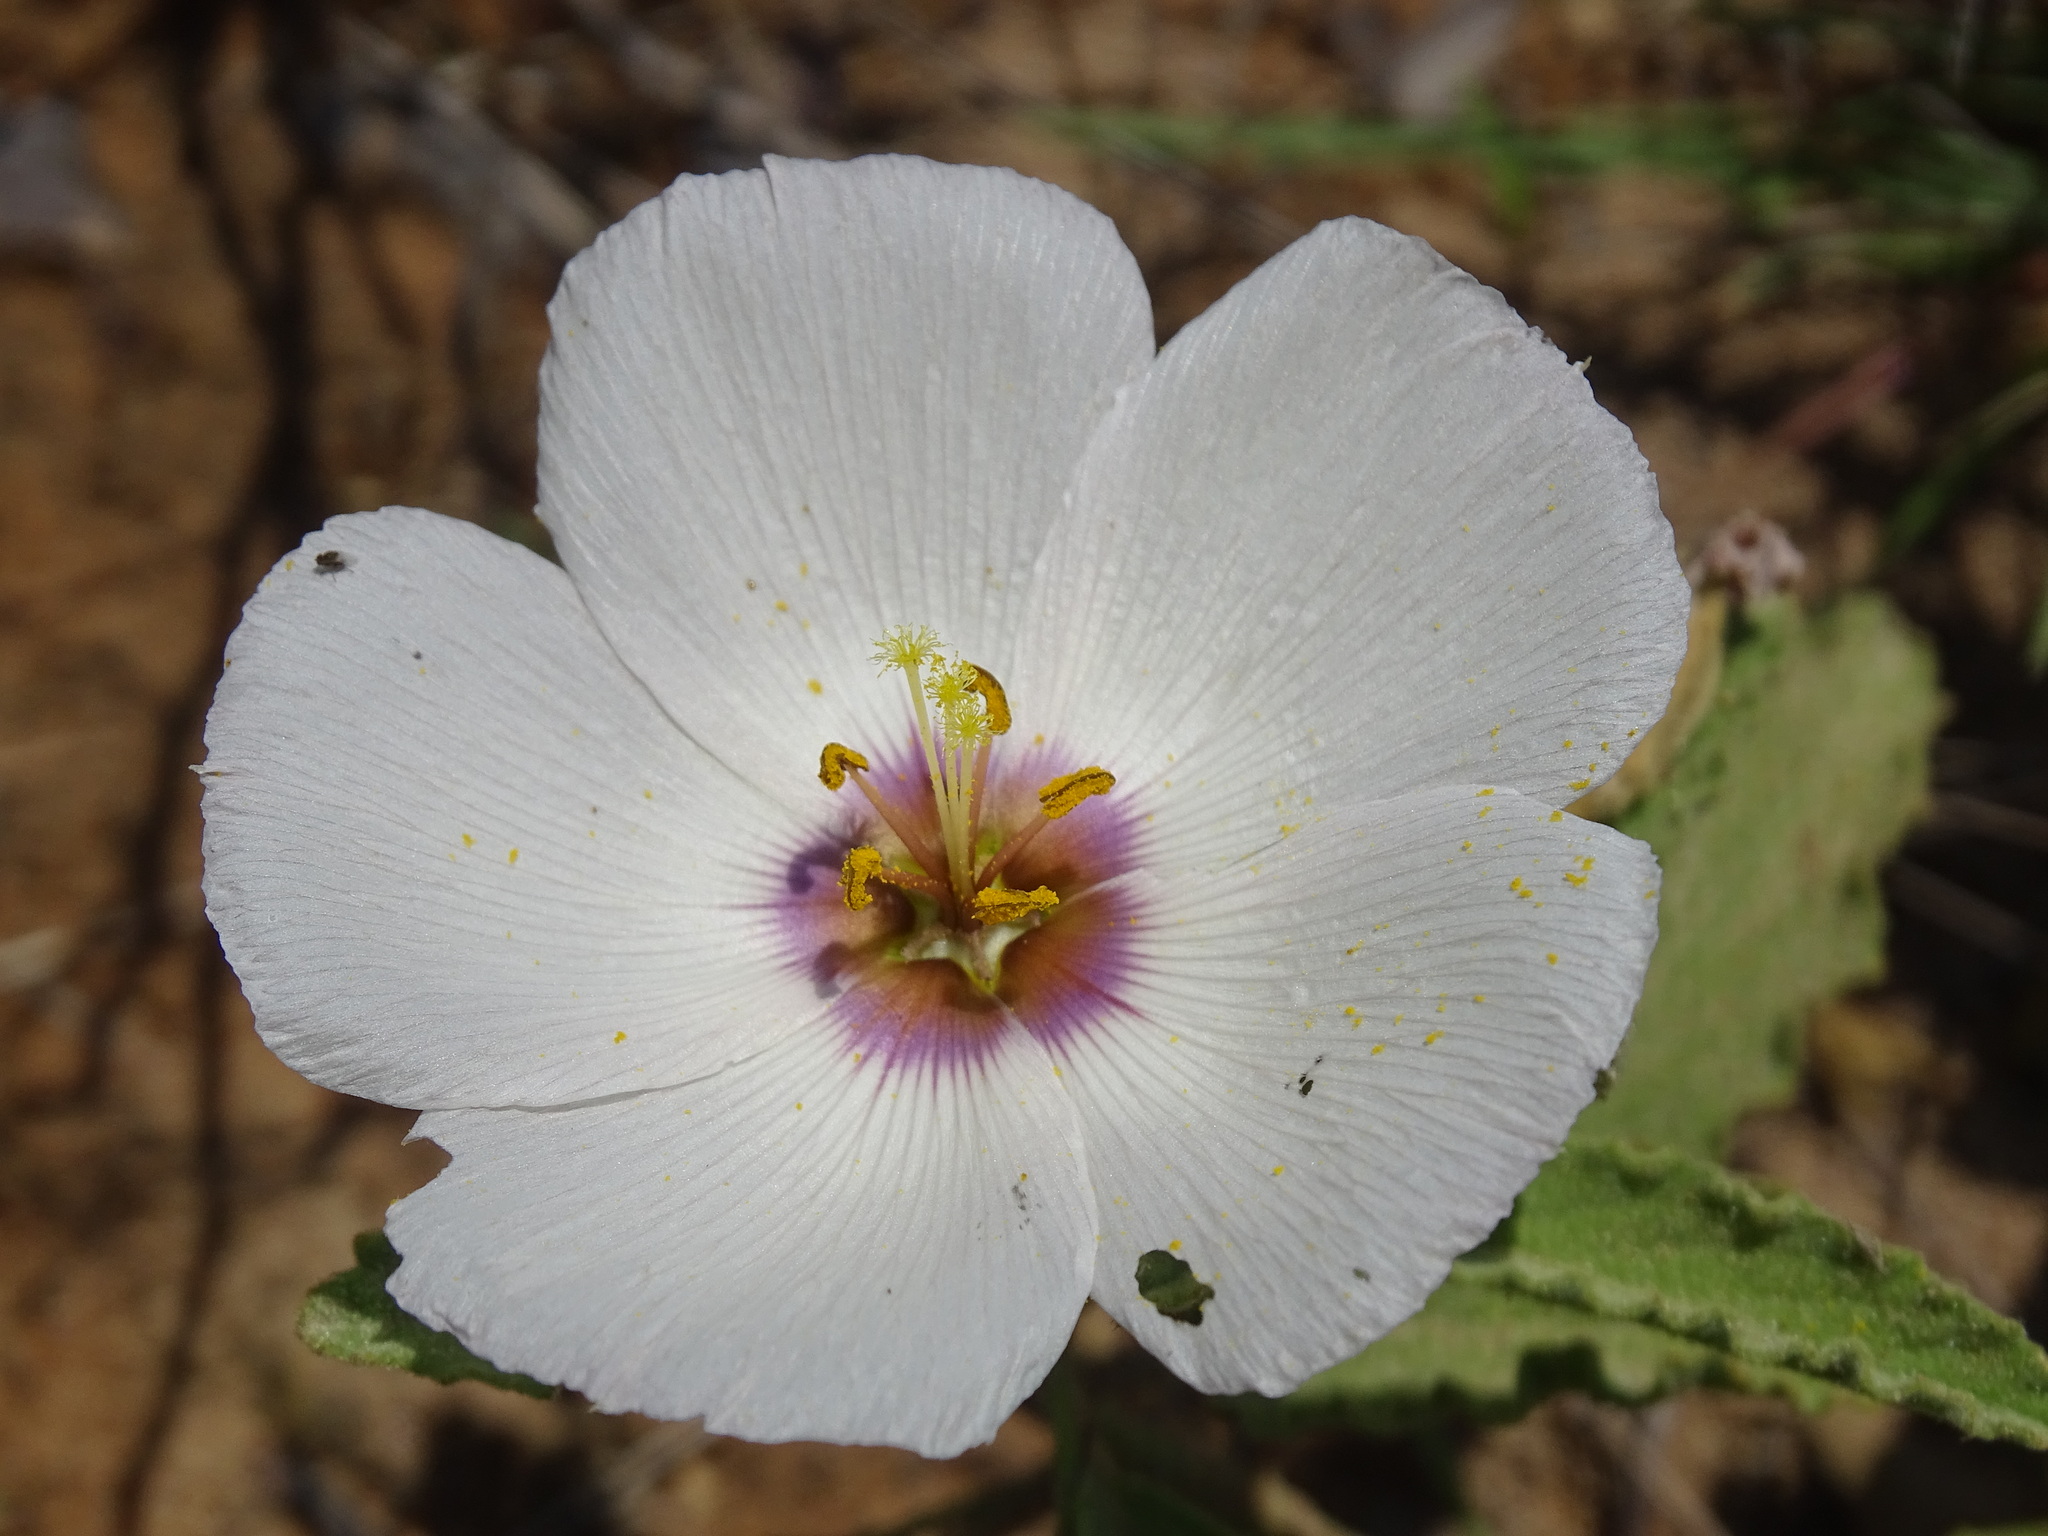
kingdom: Plantae
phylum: Tracheophyta
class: Magnoliopsida
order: Malpighiales
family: Turneraceae
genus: Piriqueta
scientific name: Piriqueta mortonii
